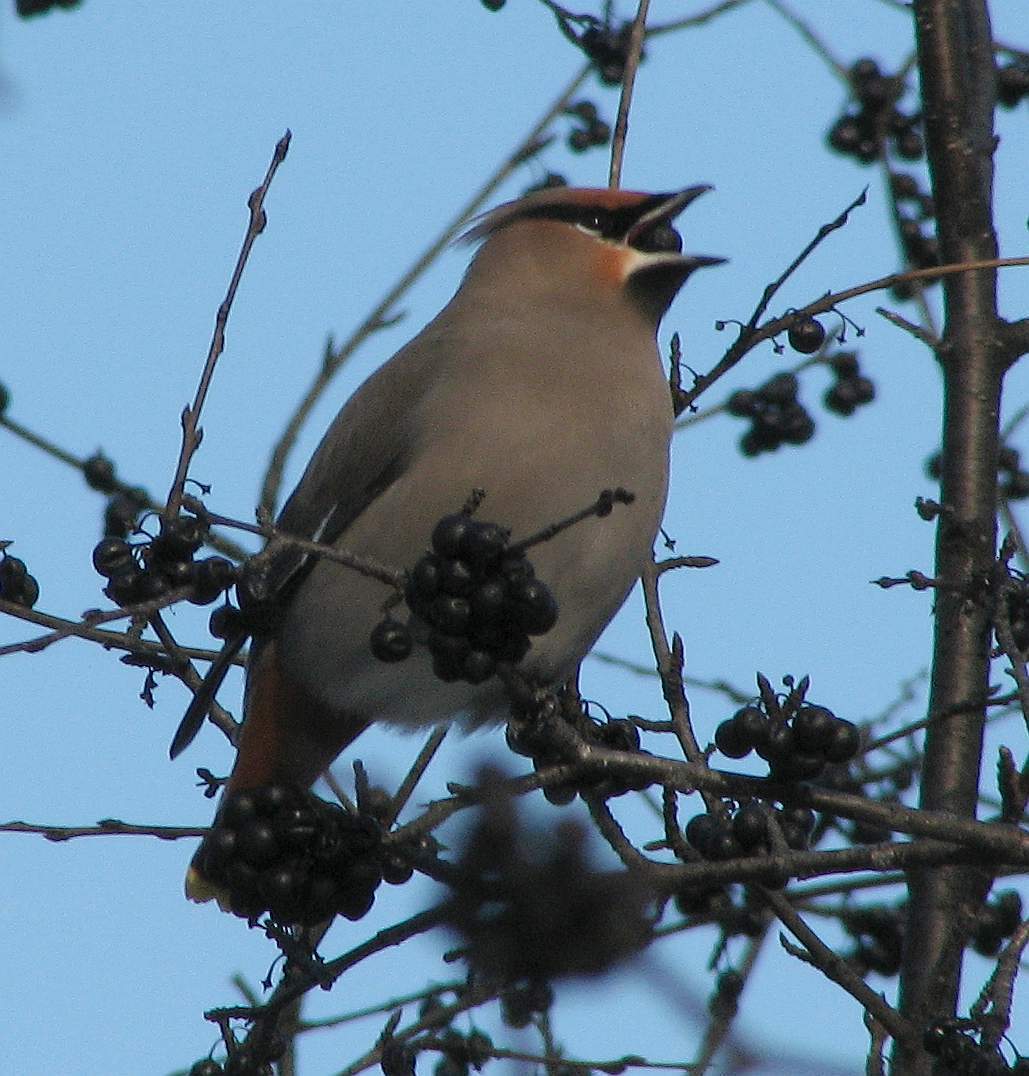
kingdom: Animalia
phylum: Chordata
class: Aves
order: Passeriformes
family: Bombycillidae
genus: Bombycilla
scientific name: Bombycilla garrulus
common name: Bohemian waxwing
